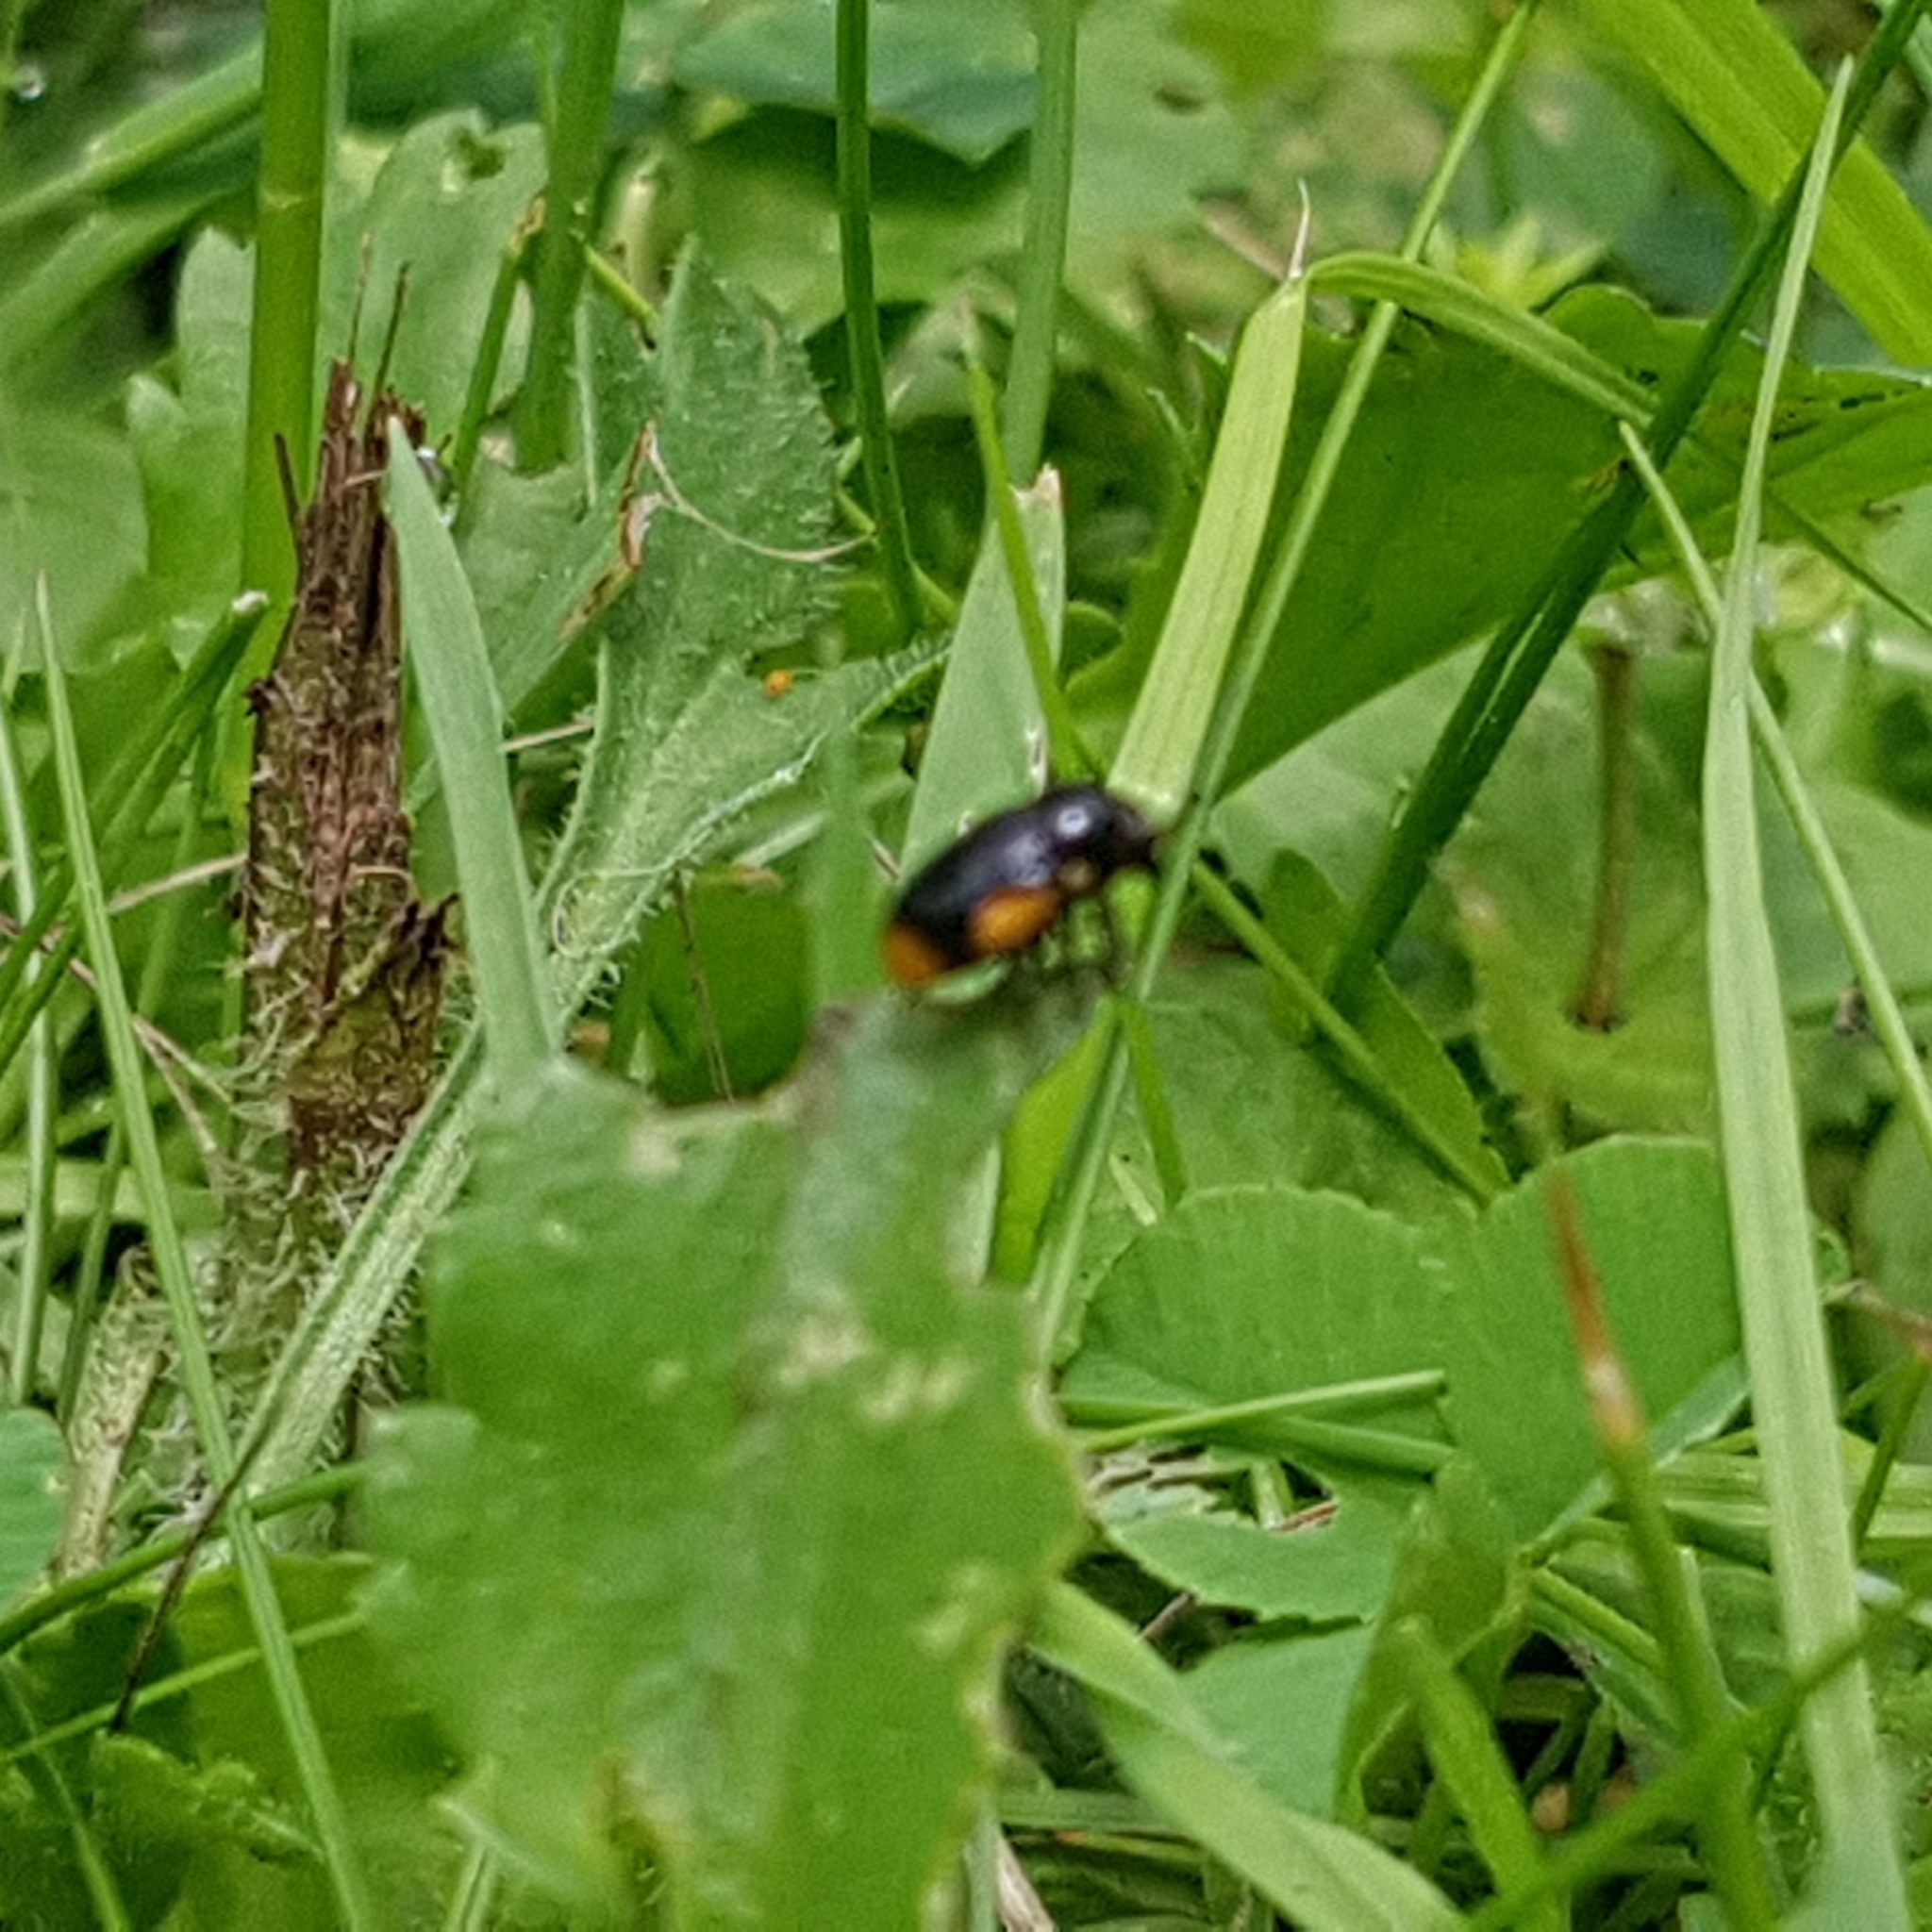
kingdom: Animalia
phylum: Arthropoda
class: Insecta
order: Coleoptera
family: Chrysomelidae
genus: Cryptocephalus
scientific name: Cryptocephalus moraei
